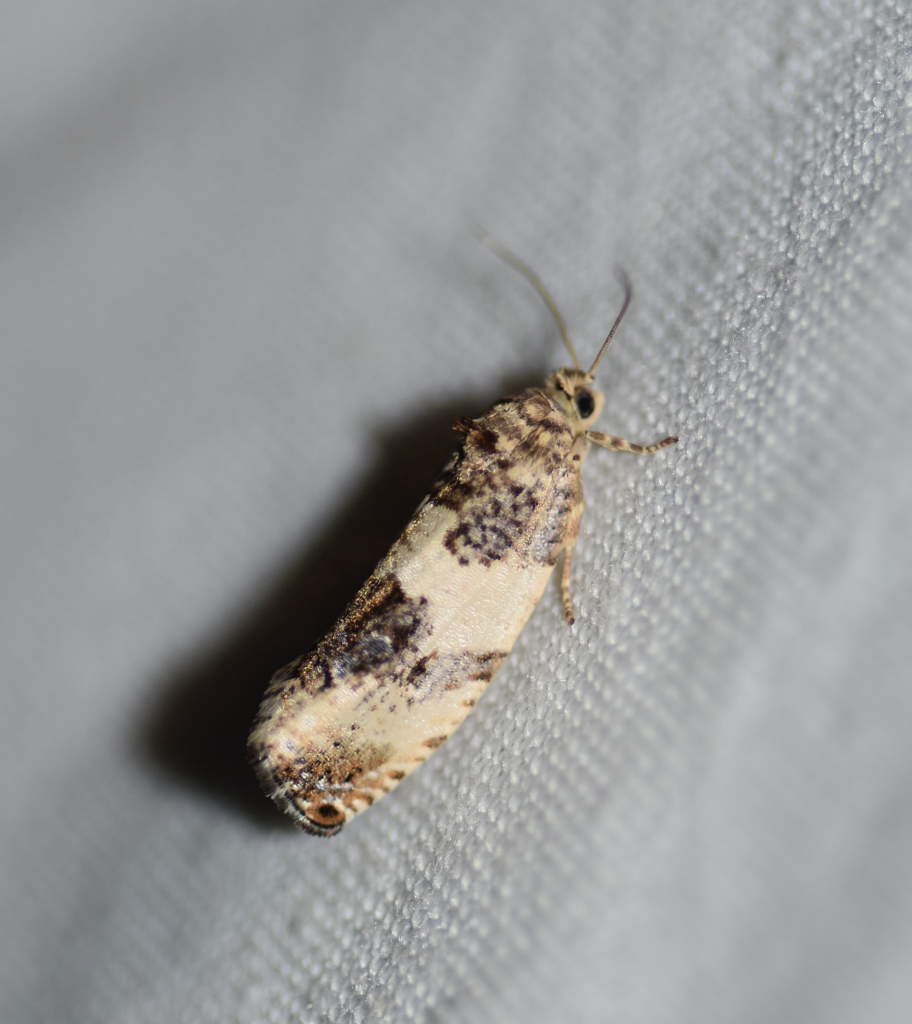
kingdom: Animalia
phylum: Arthropoda
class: Insecta
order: Lepidoptera
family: Tortricidae
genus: Pseudosciaphila
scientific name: Pseudosciaphila duplex
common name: Poplar leafroller moth
